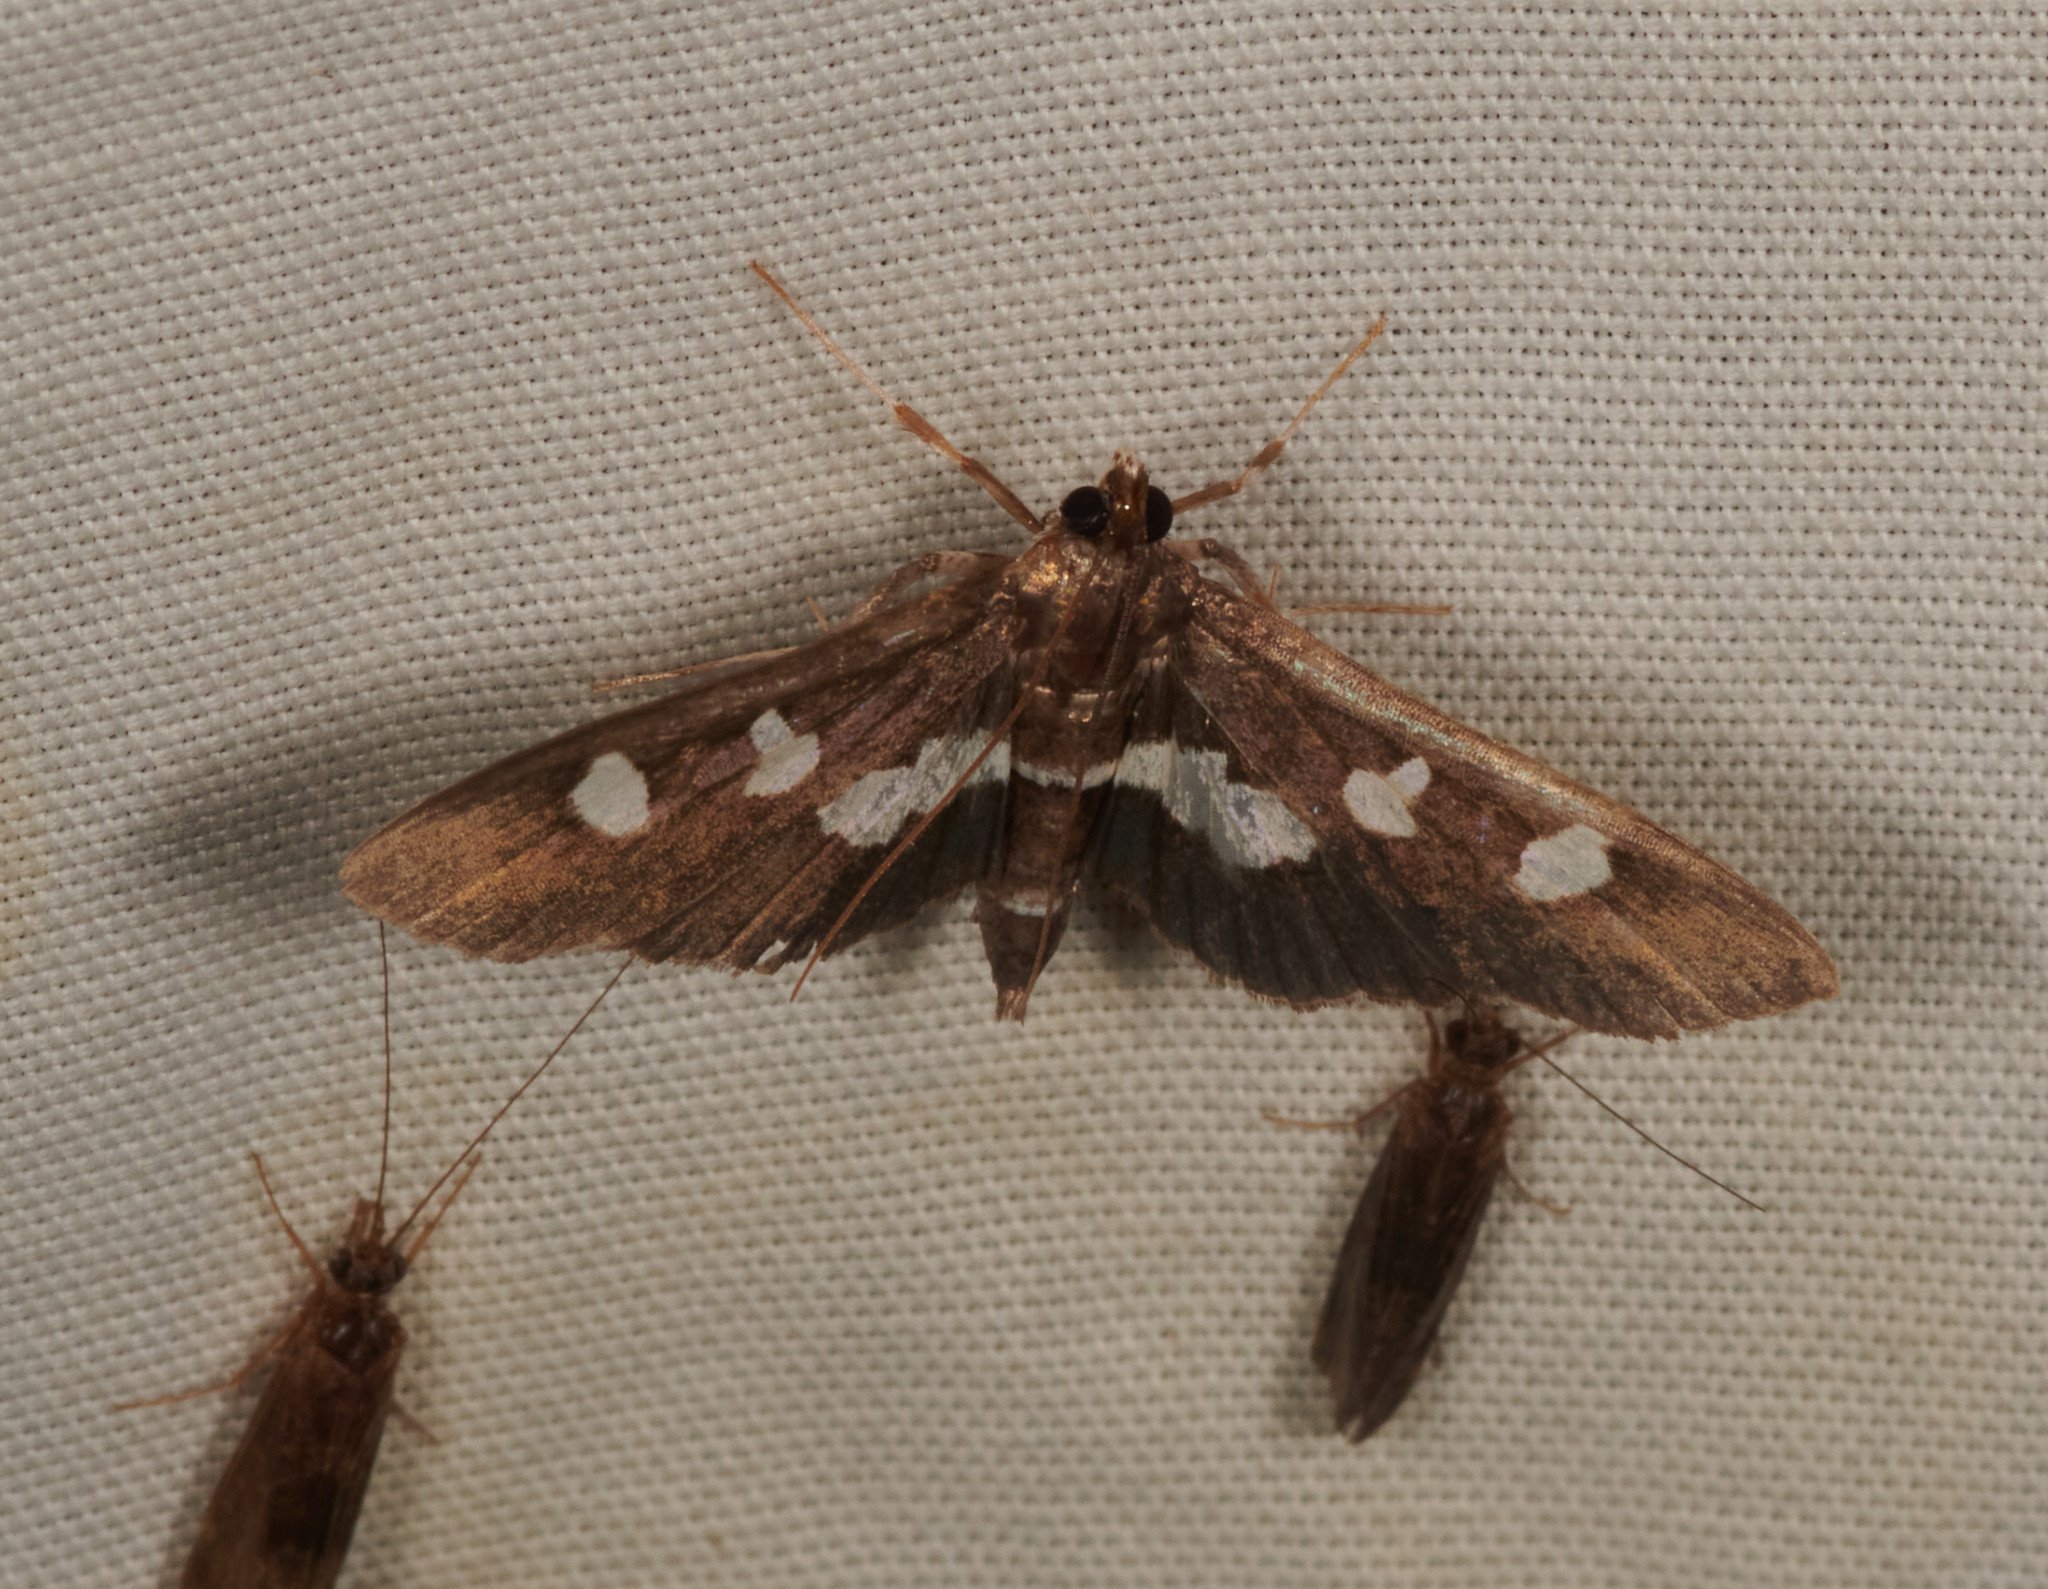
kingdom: Animalia
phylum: Arthropoda
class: Insecta
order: Lepidoptera
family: Crambidae
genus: Desmia
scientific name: Desmia
